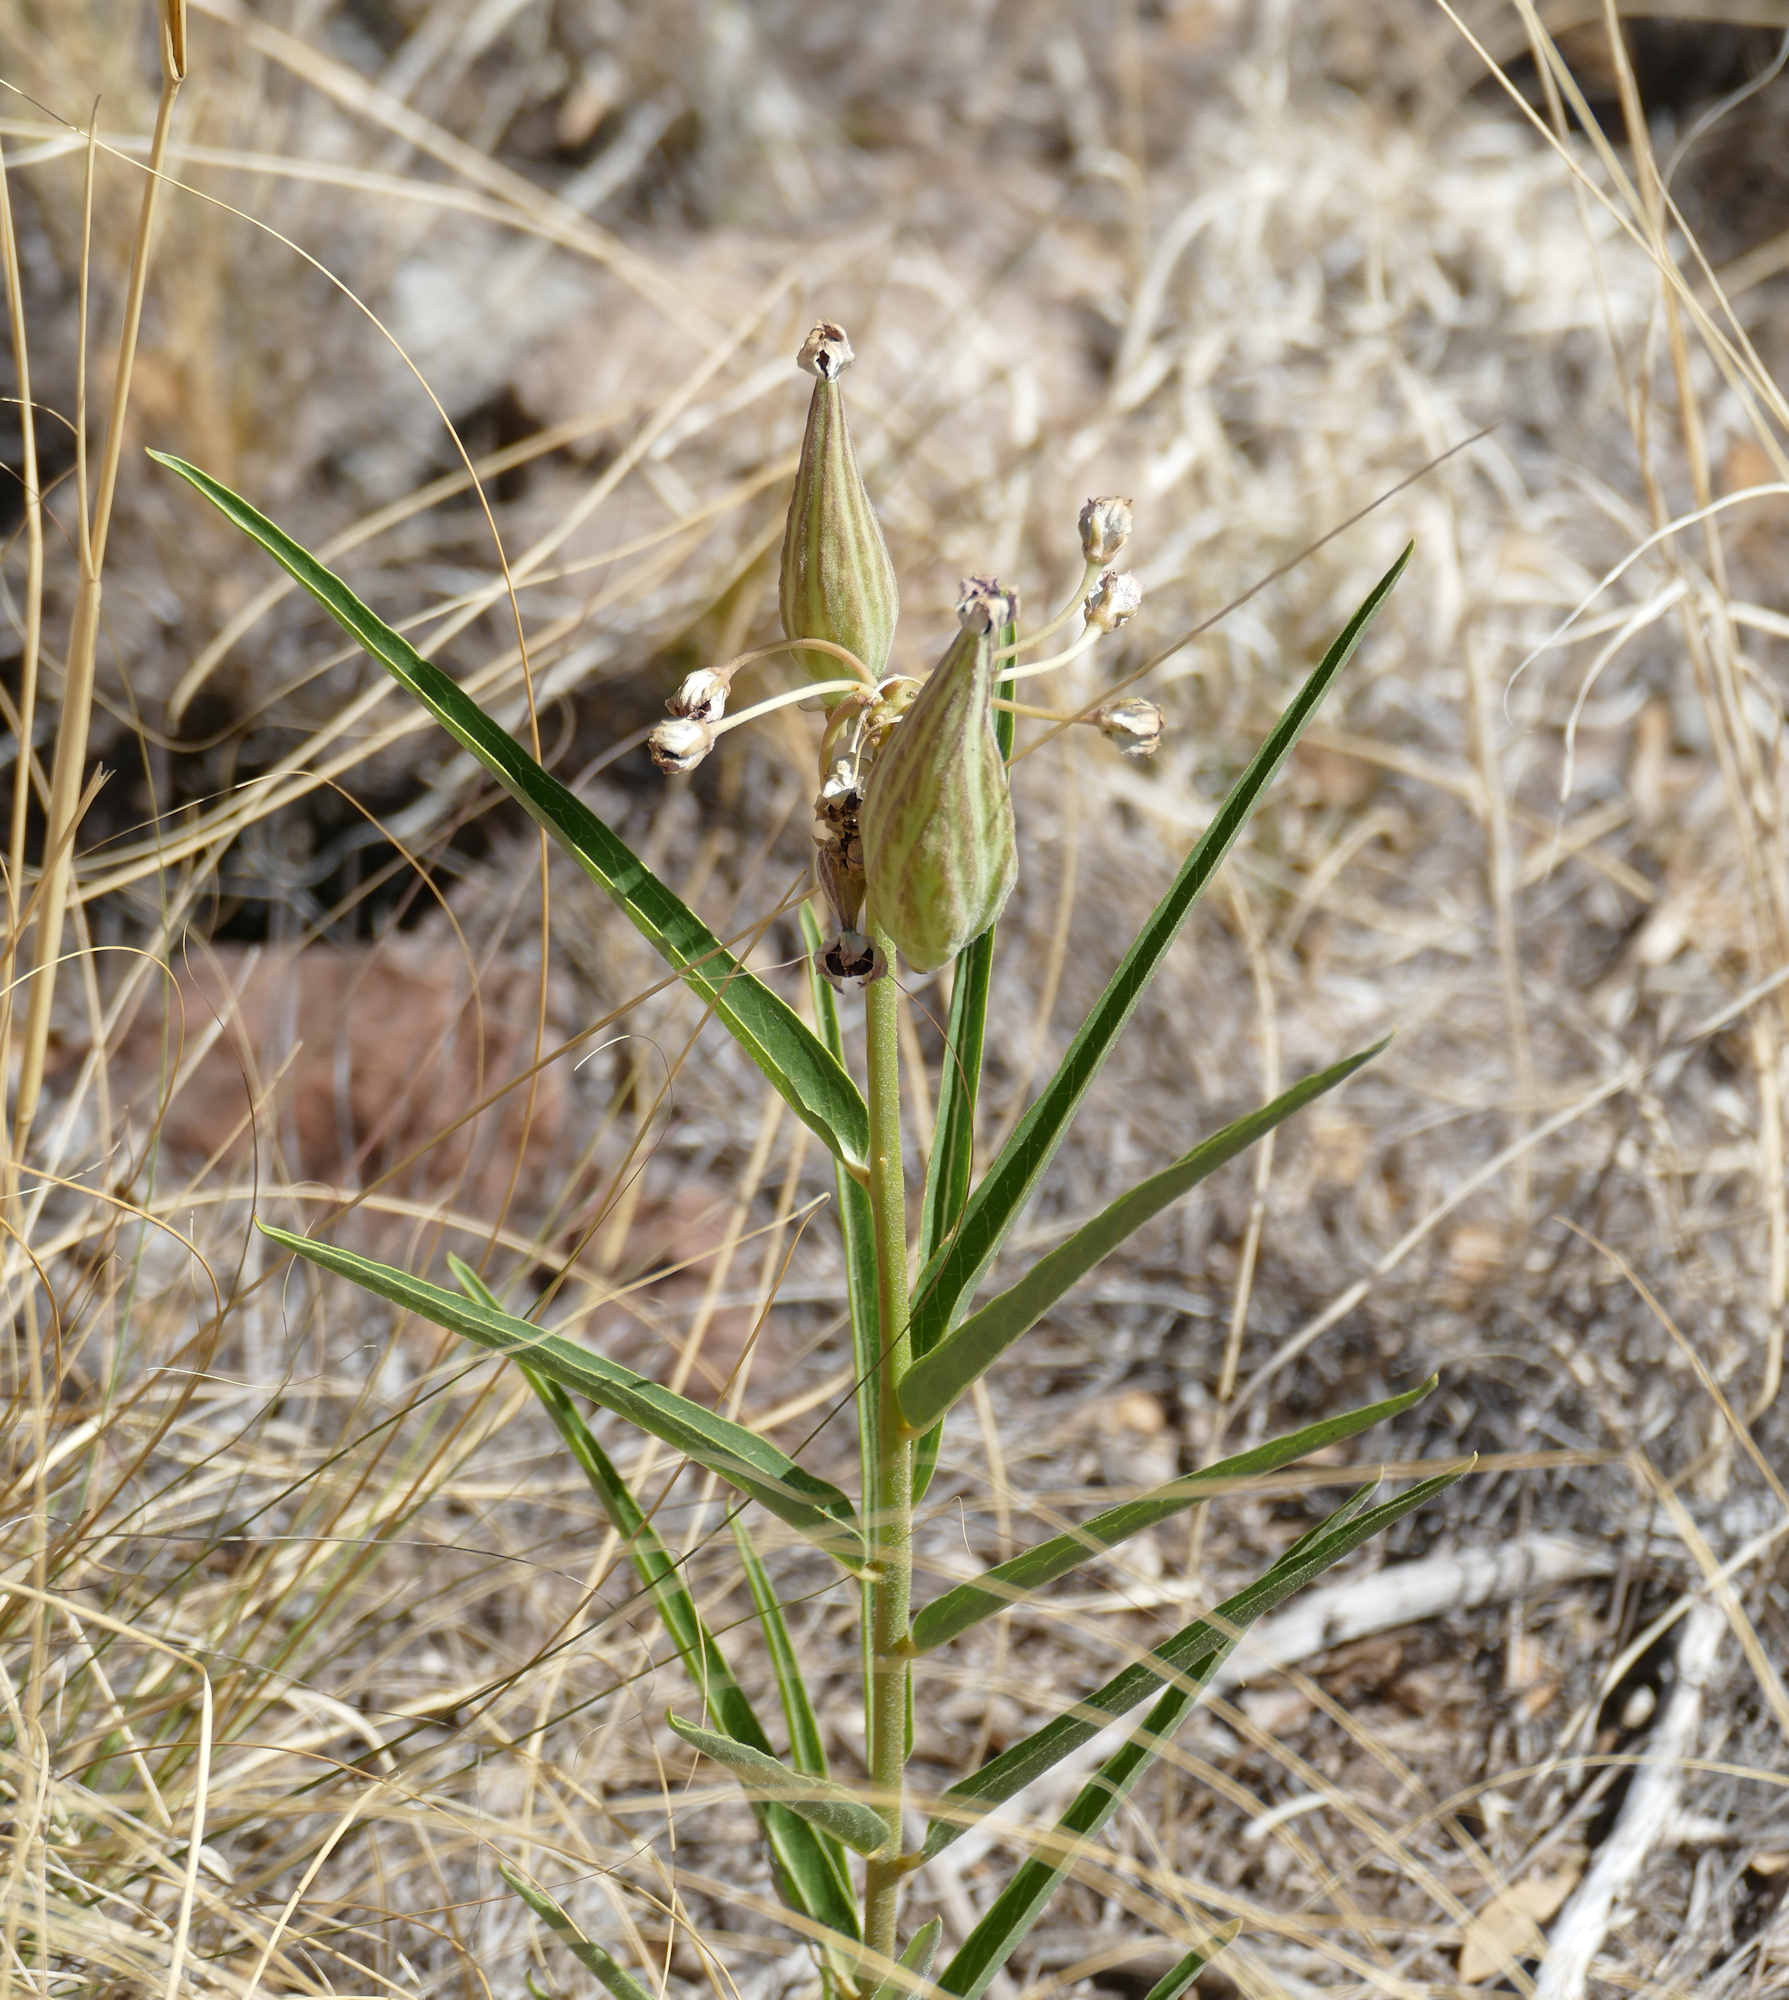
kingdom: Plantae
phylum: Tracheophyta
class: Magnoliopsida
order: Gentianales
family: Apocynaceae
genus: Asclepias
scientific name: Asclepias asperula
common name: Antelope horns
